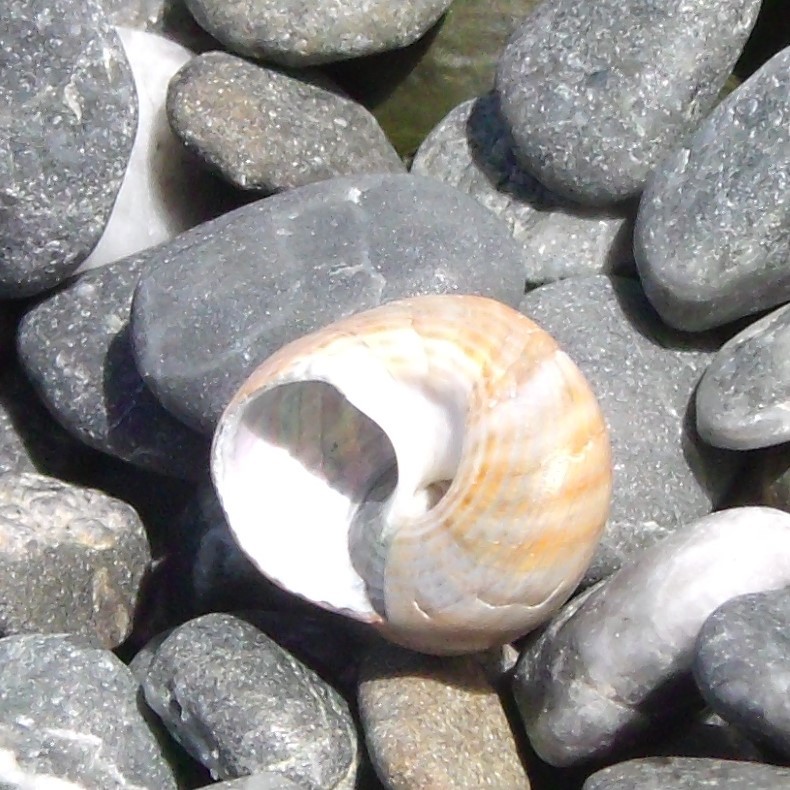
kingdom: Animalia
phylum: Mollusca
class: Gastropoda
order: Trochida
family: Trochidae
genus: Micrelenchus
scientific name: Micrelenchus tessellatus
